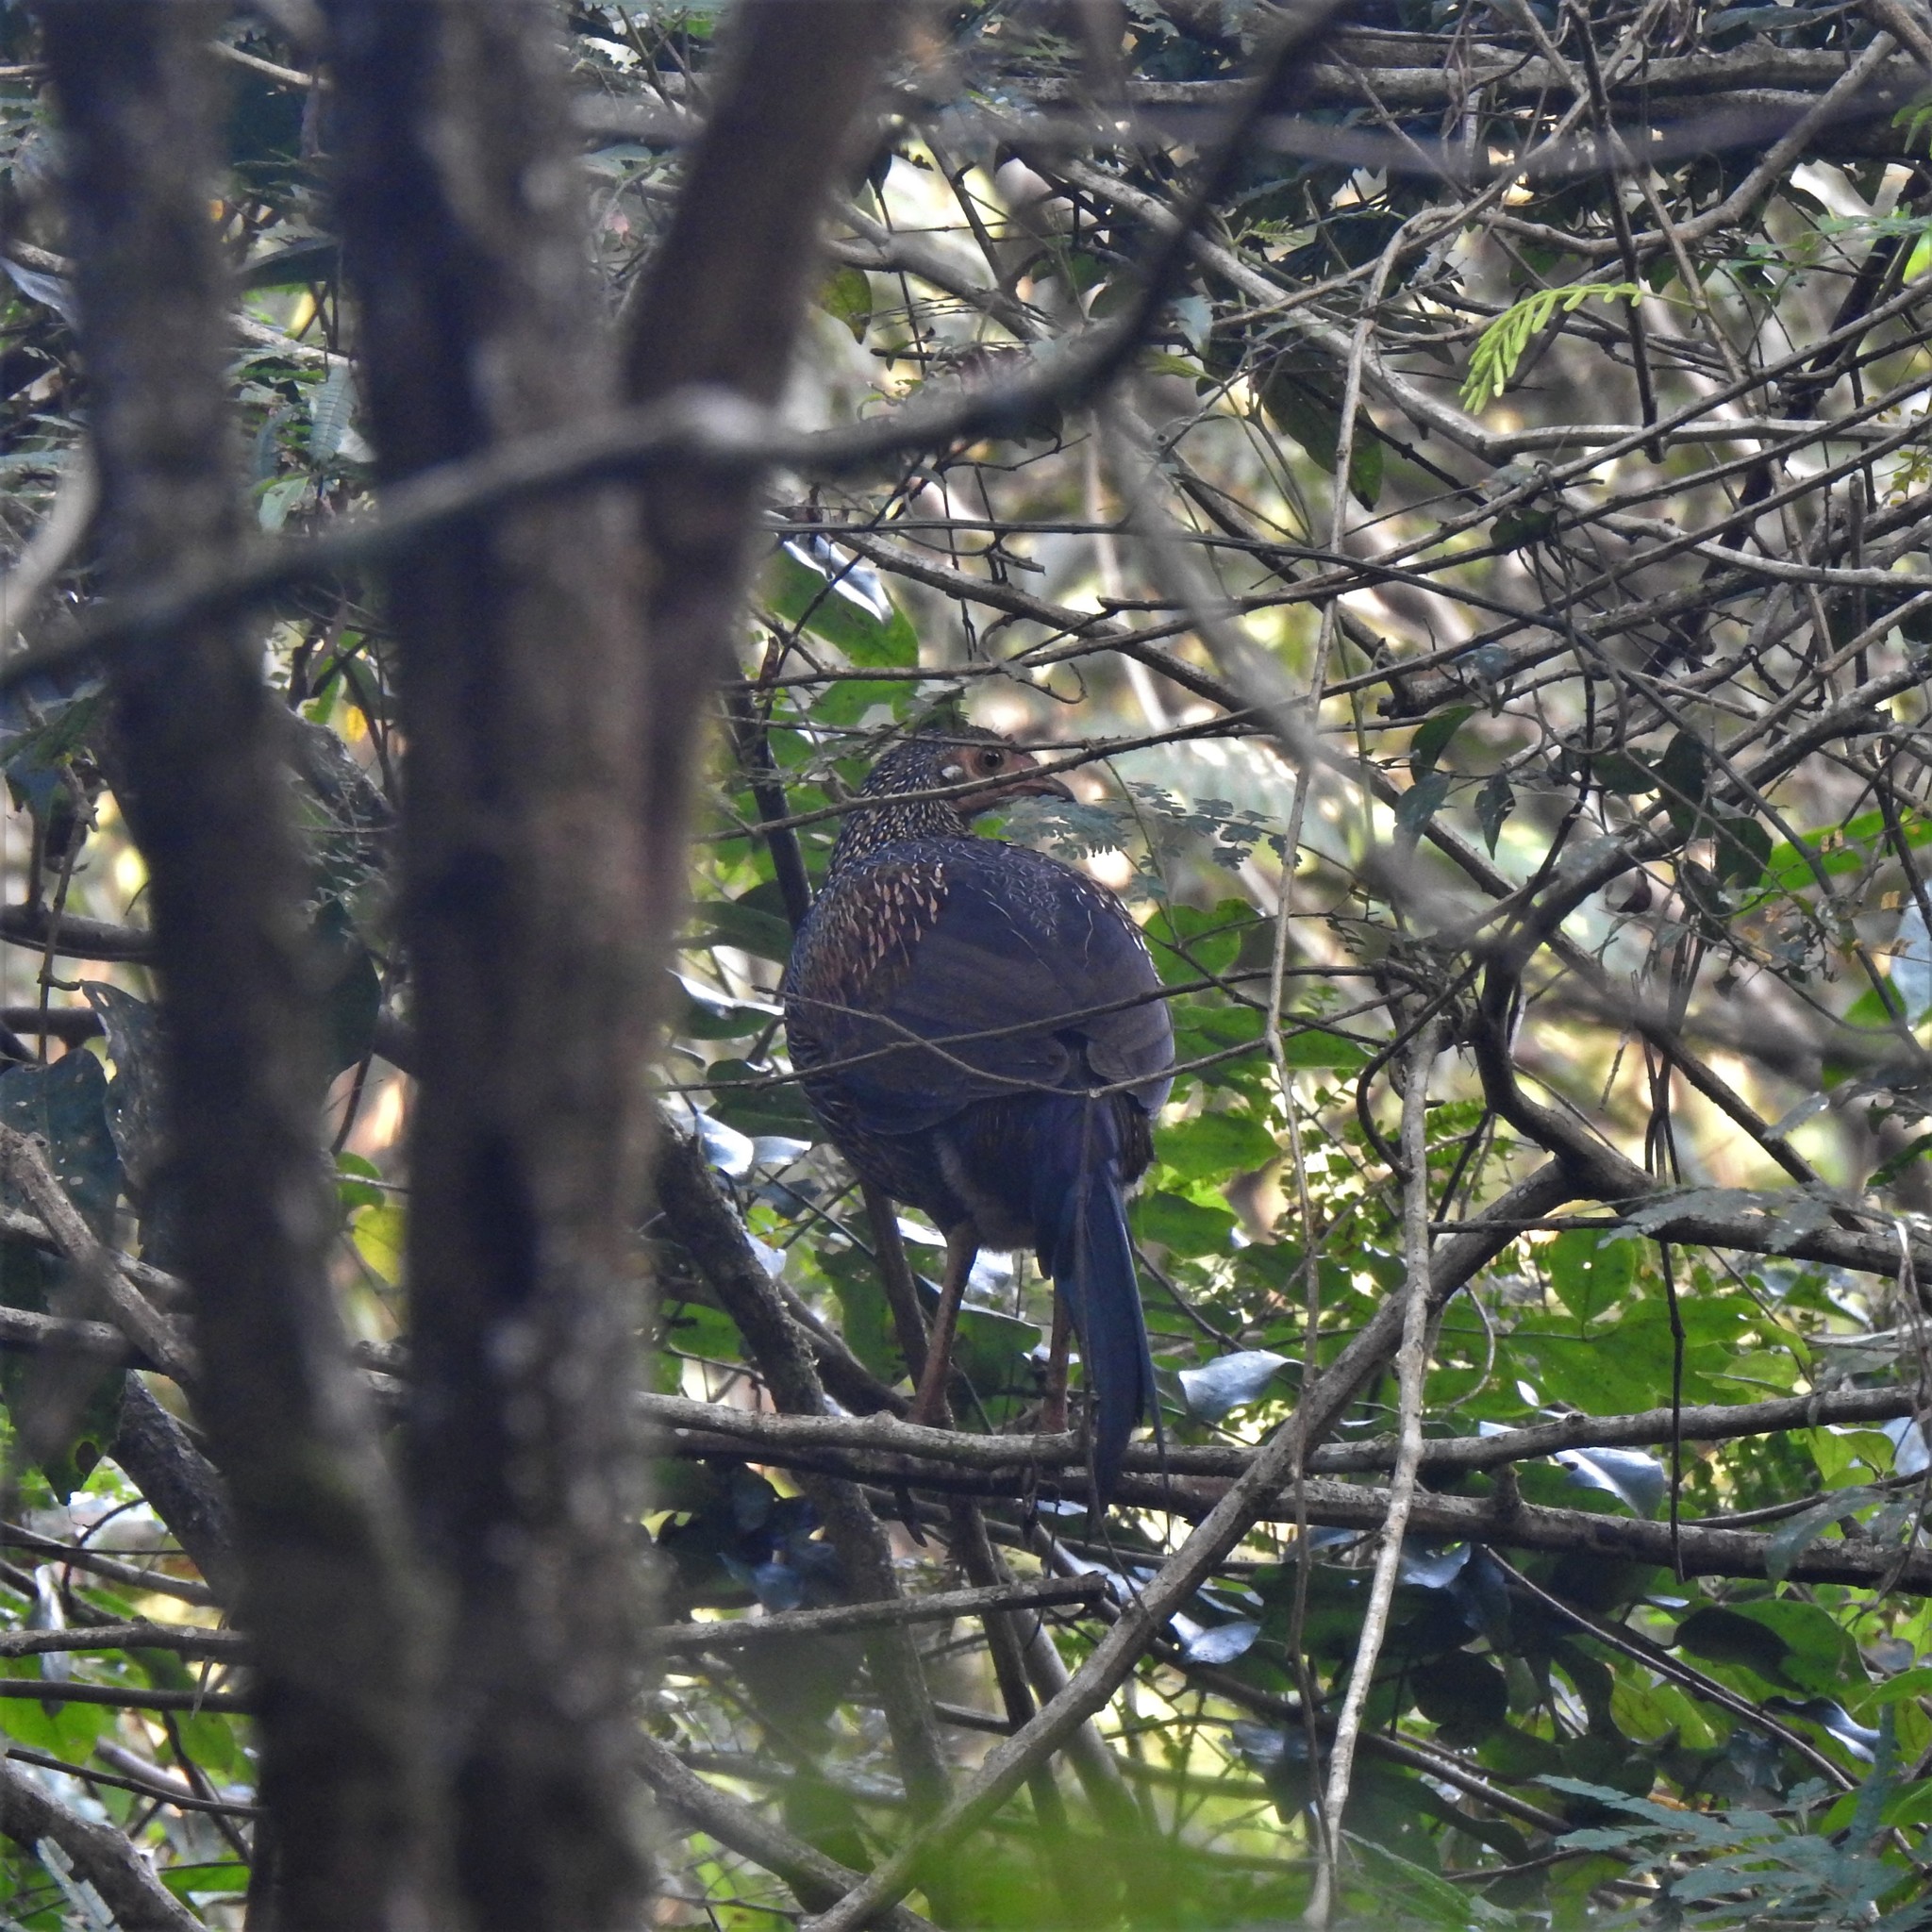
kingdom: Animalia
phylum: Chordata
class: Aves
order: Galliformes
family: Phasianidae
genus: Gallus
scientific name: Gallus sonneratii
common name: Grey junglefowl
